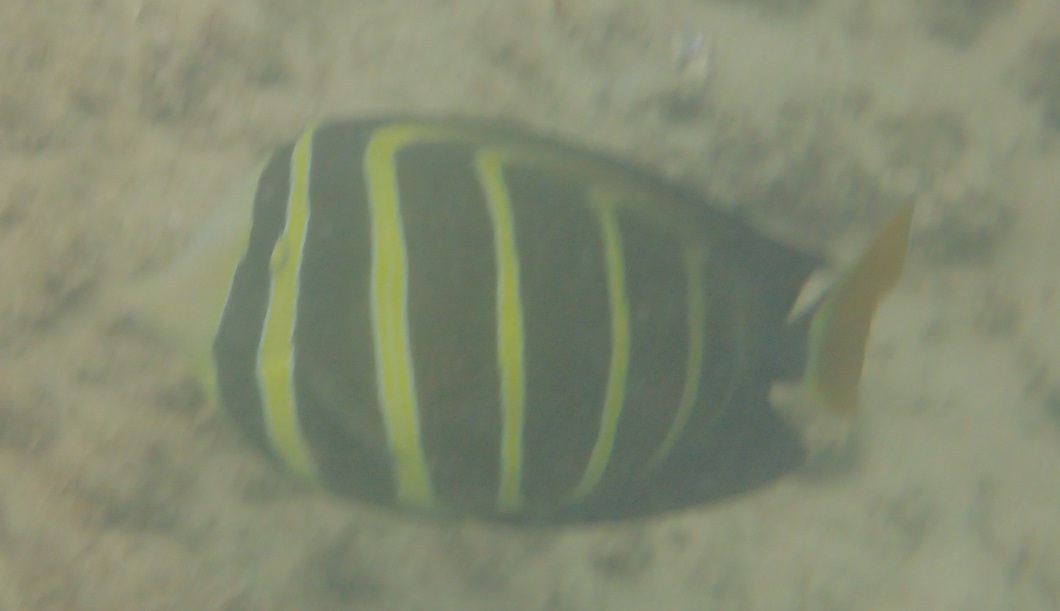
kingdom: Animalia
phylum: Chordata
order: Perciformes
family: Acanthuridae
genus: Zebrasoma
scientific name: Zebrasoma veliferum
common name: Sailfin surgeonfish
